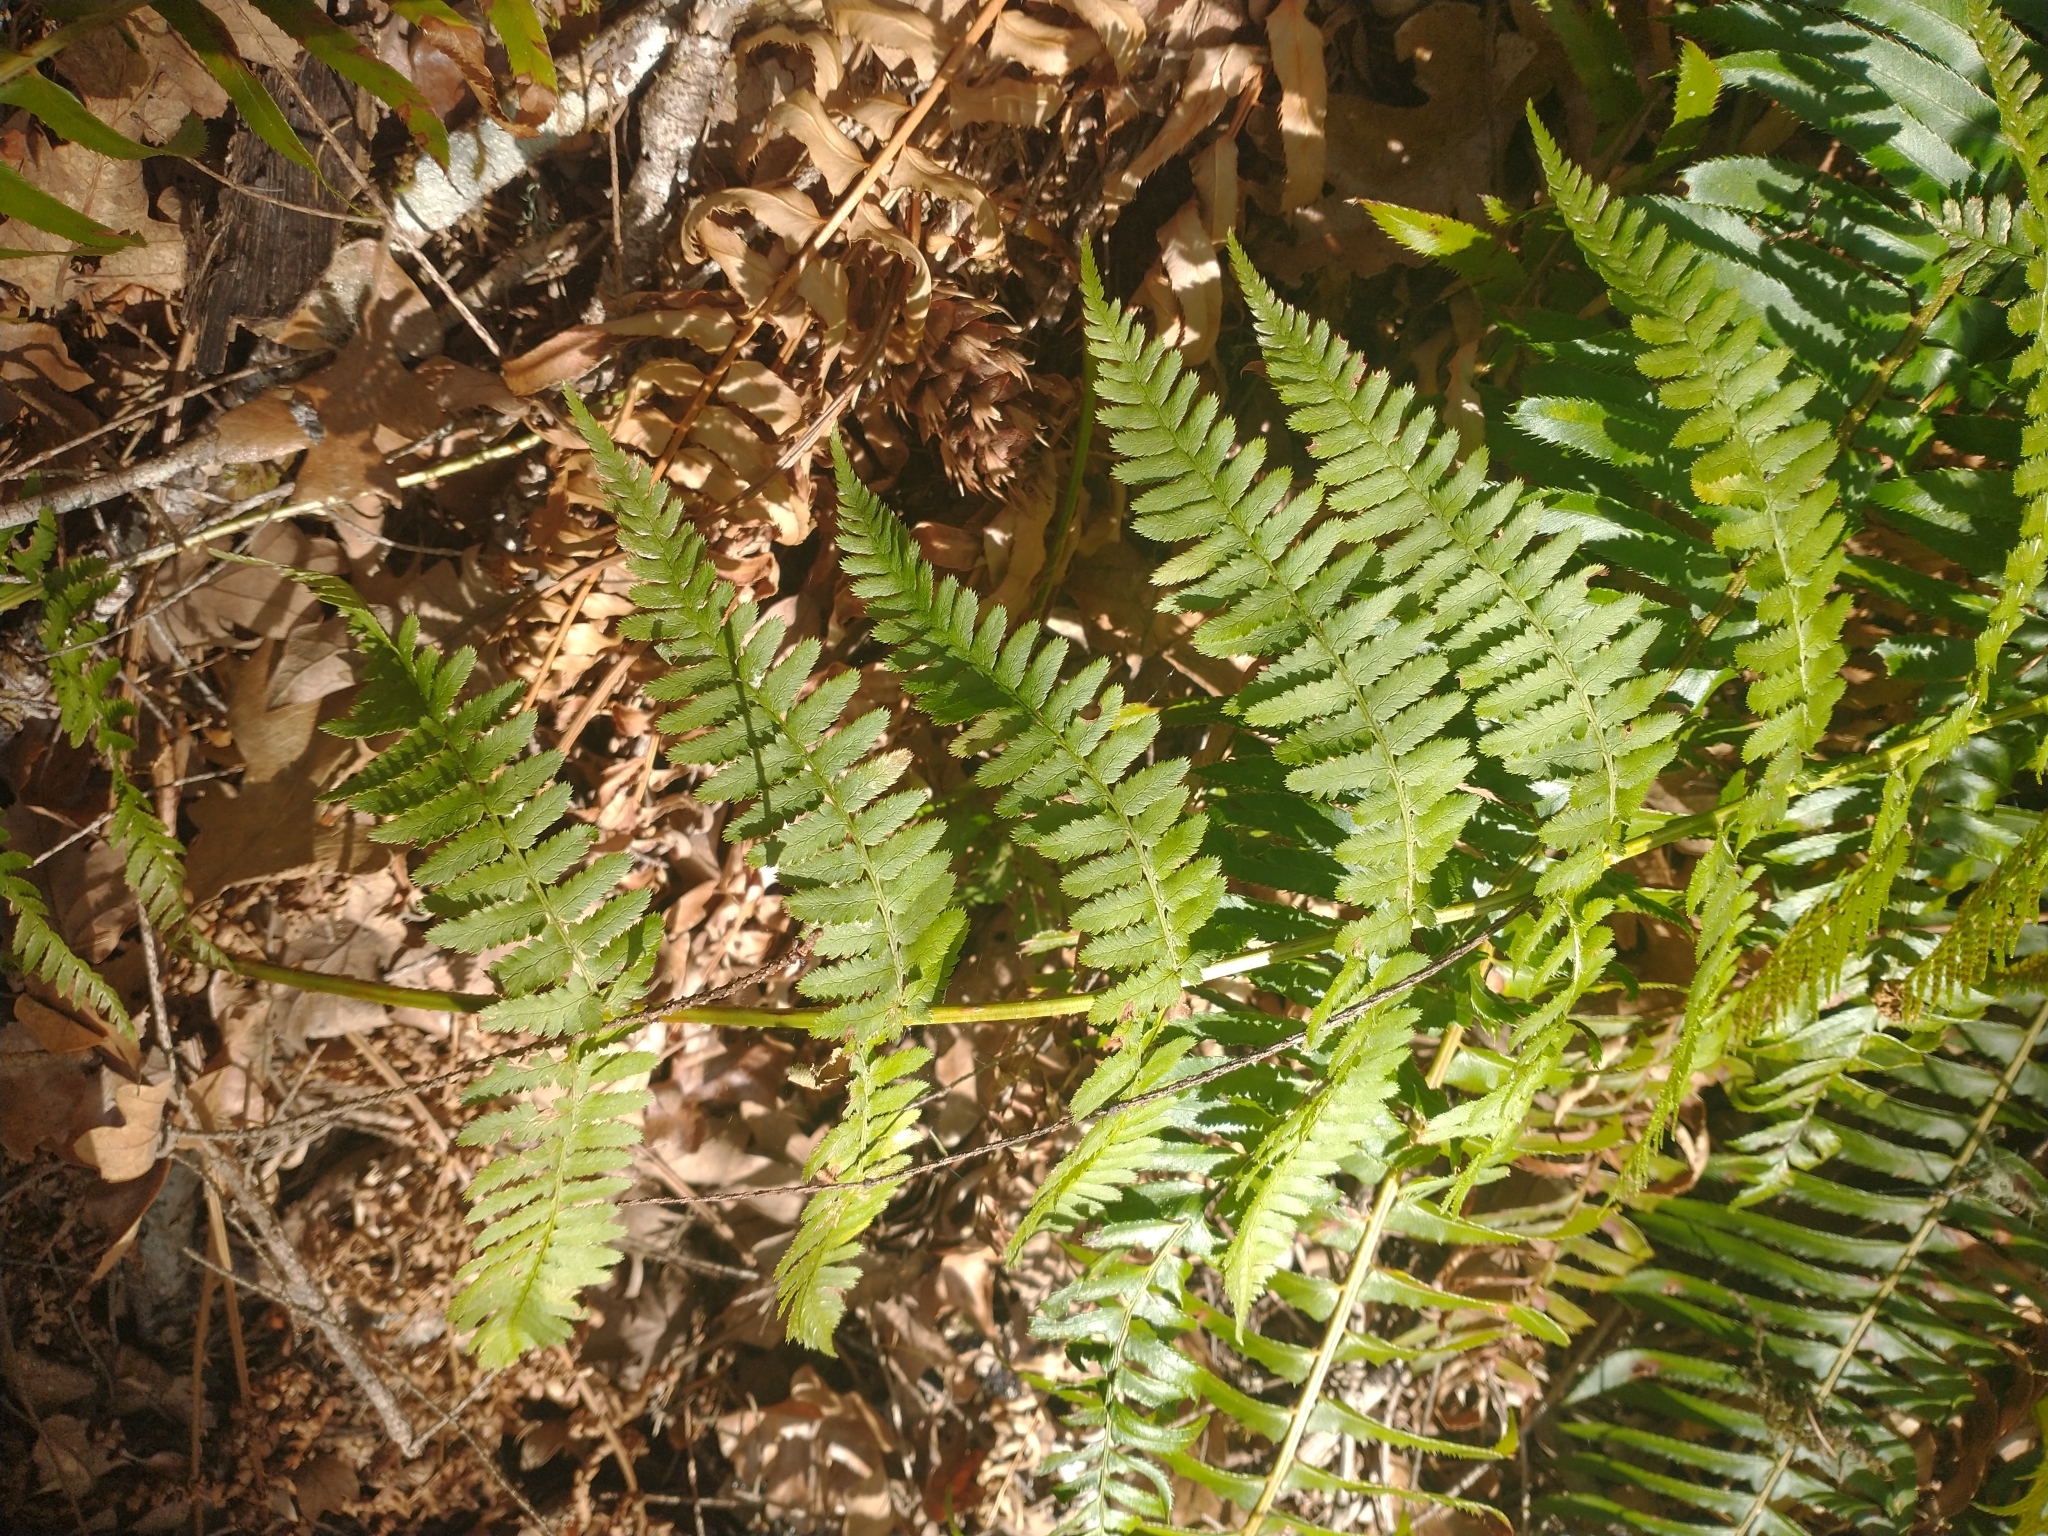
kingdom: Plantae
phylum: Tracheophyta
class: Polypodiopsida
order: Polypodiales
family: Dryopteridaceae
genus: Dryopteris
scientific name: Dryopteris arguta
